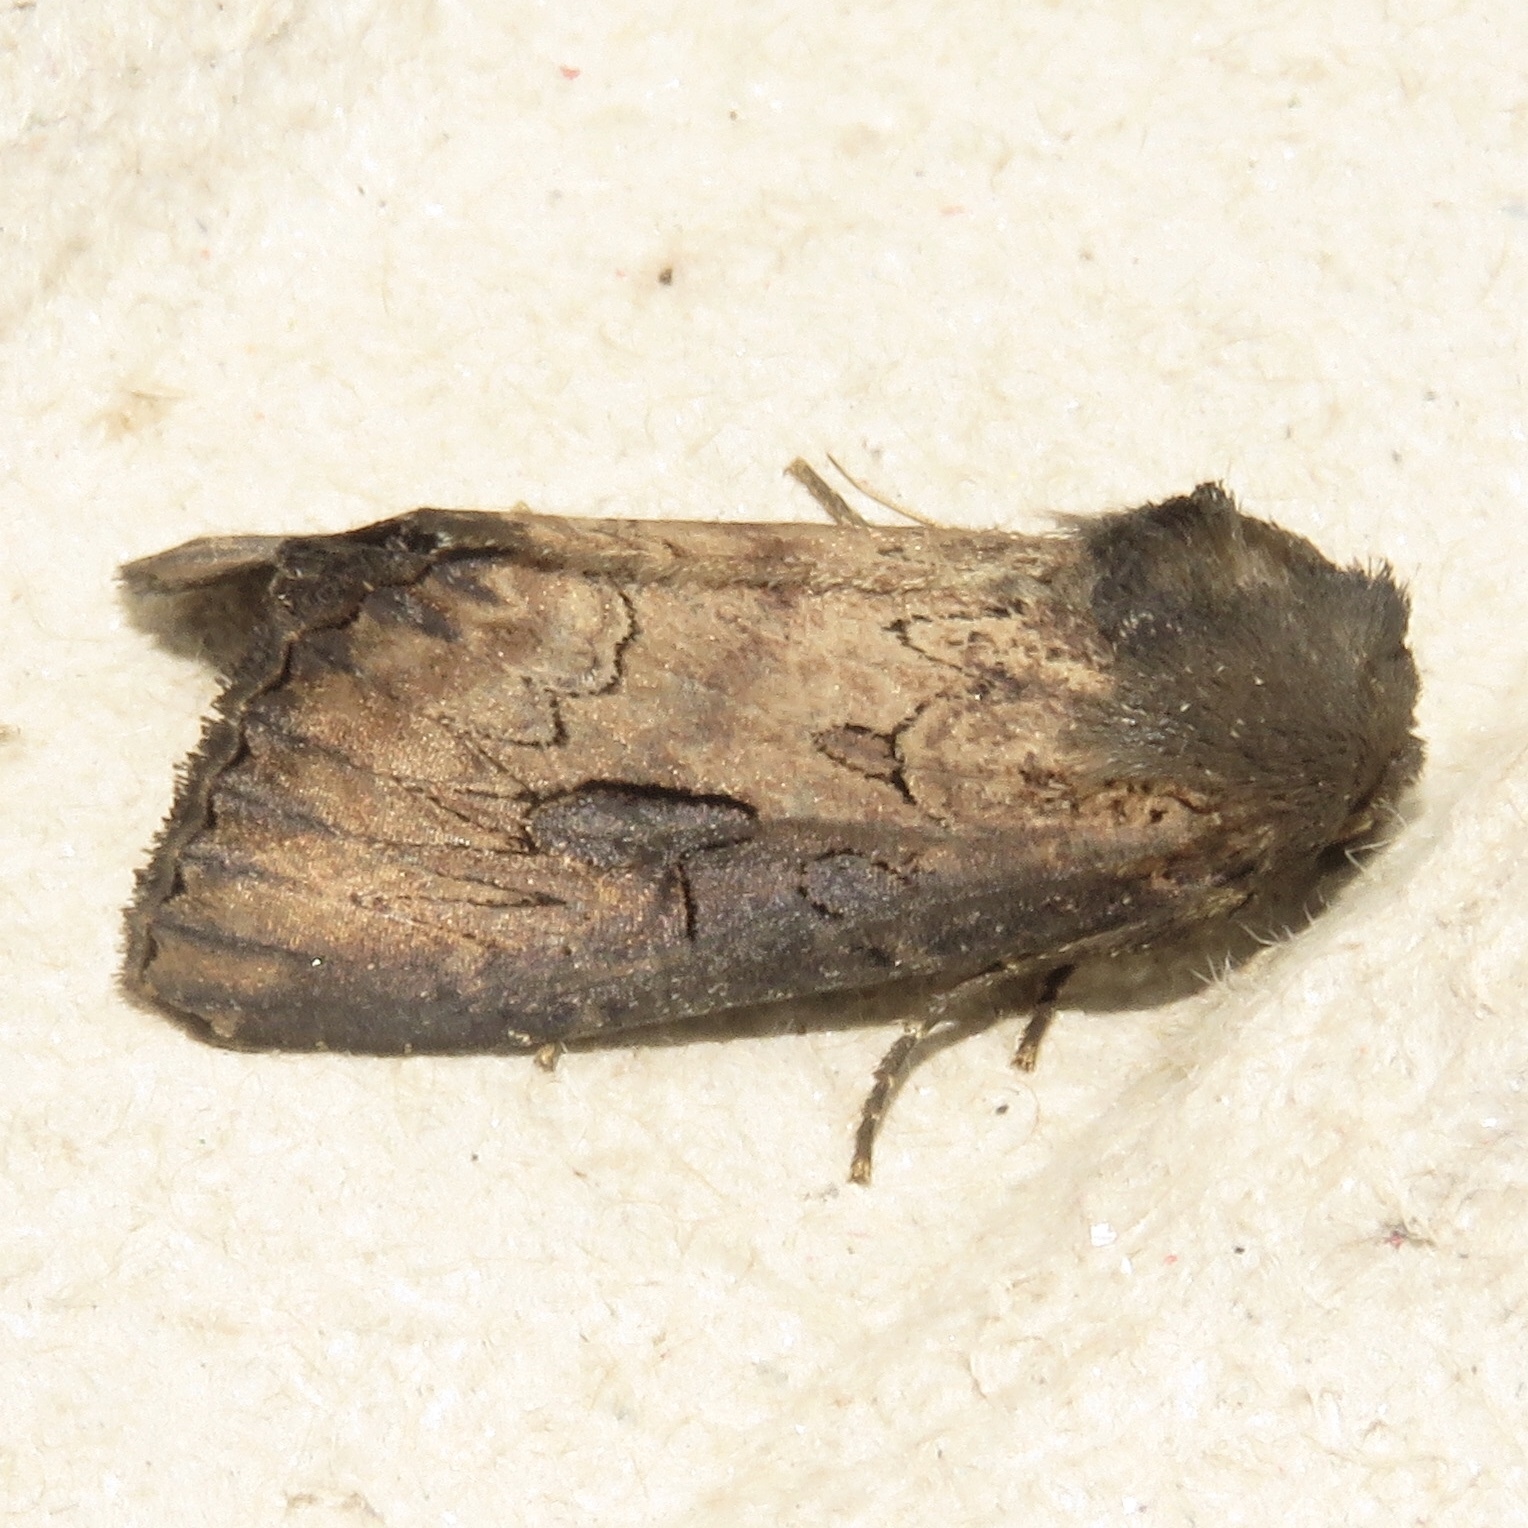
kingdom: Animalia
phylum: Arthropoda
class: Insecta
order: Lepidoptera
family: Noctuidae
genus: Macronoctua
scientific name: Macronoctua onusta
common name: Iris borer
